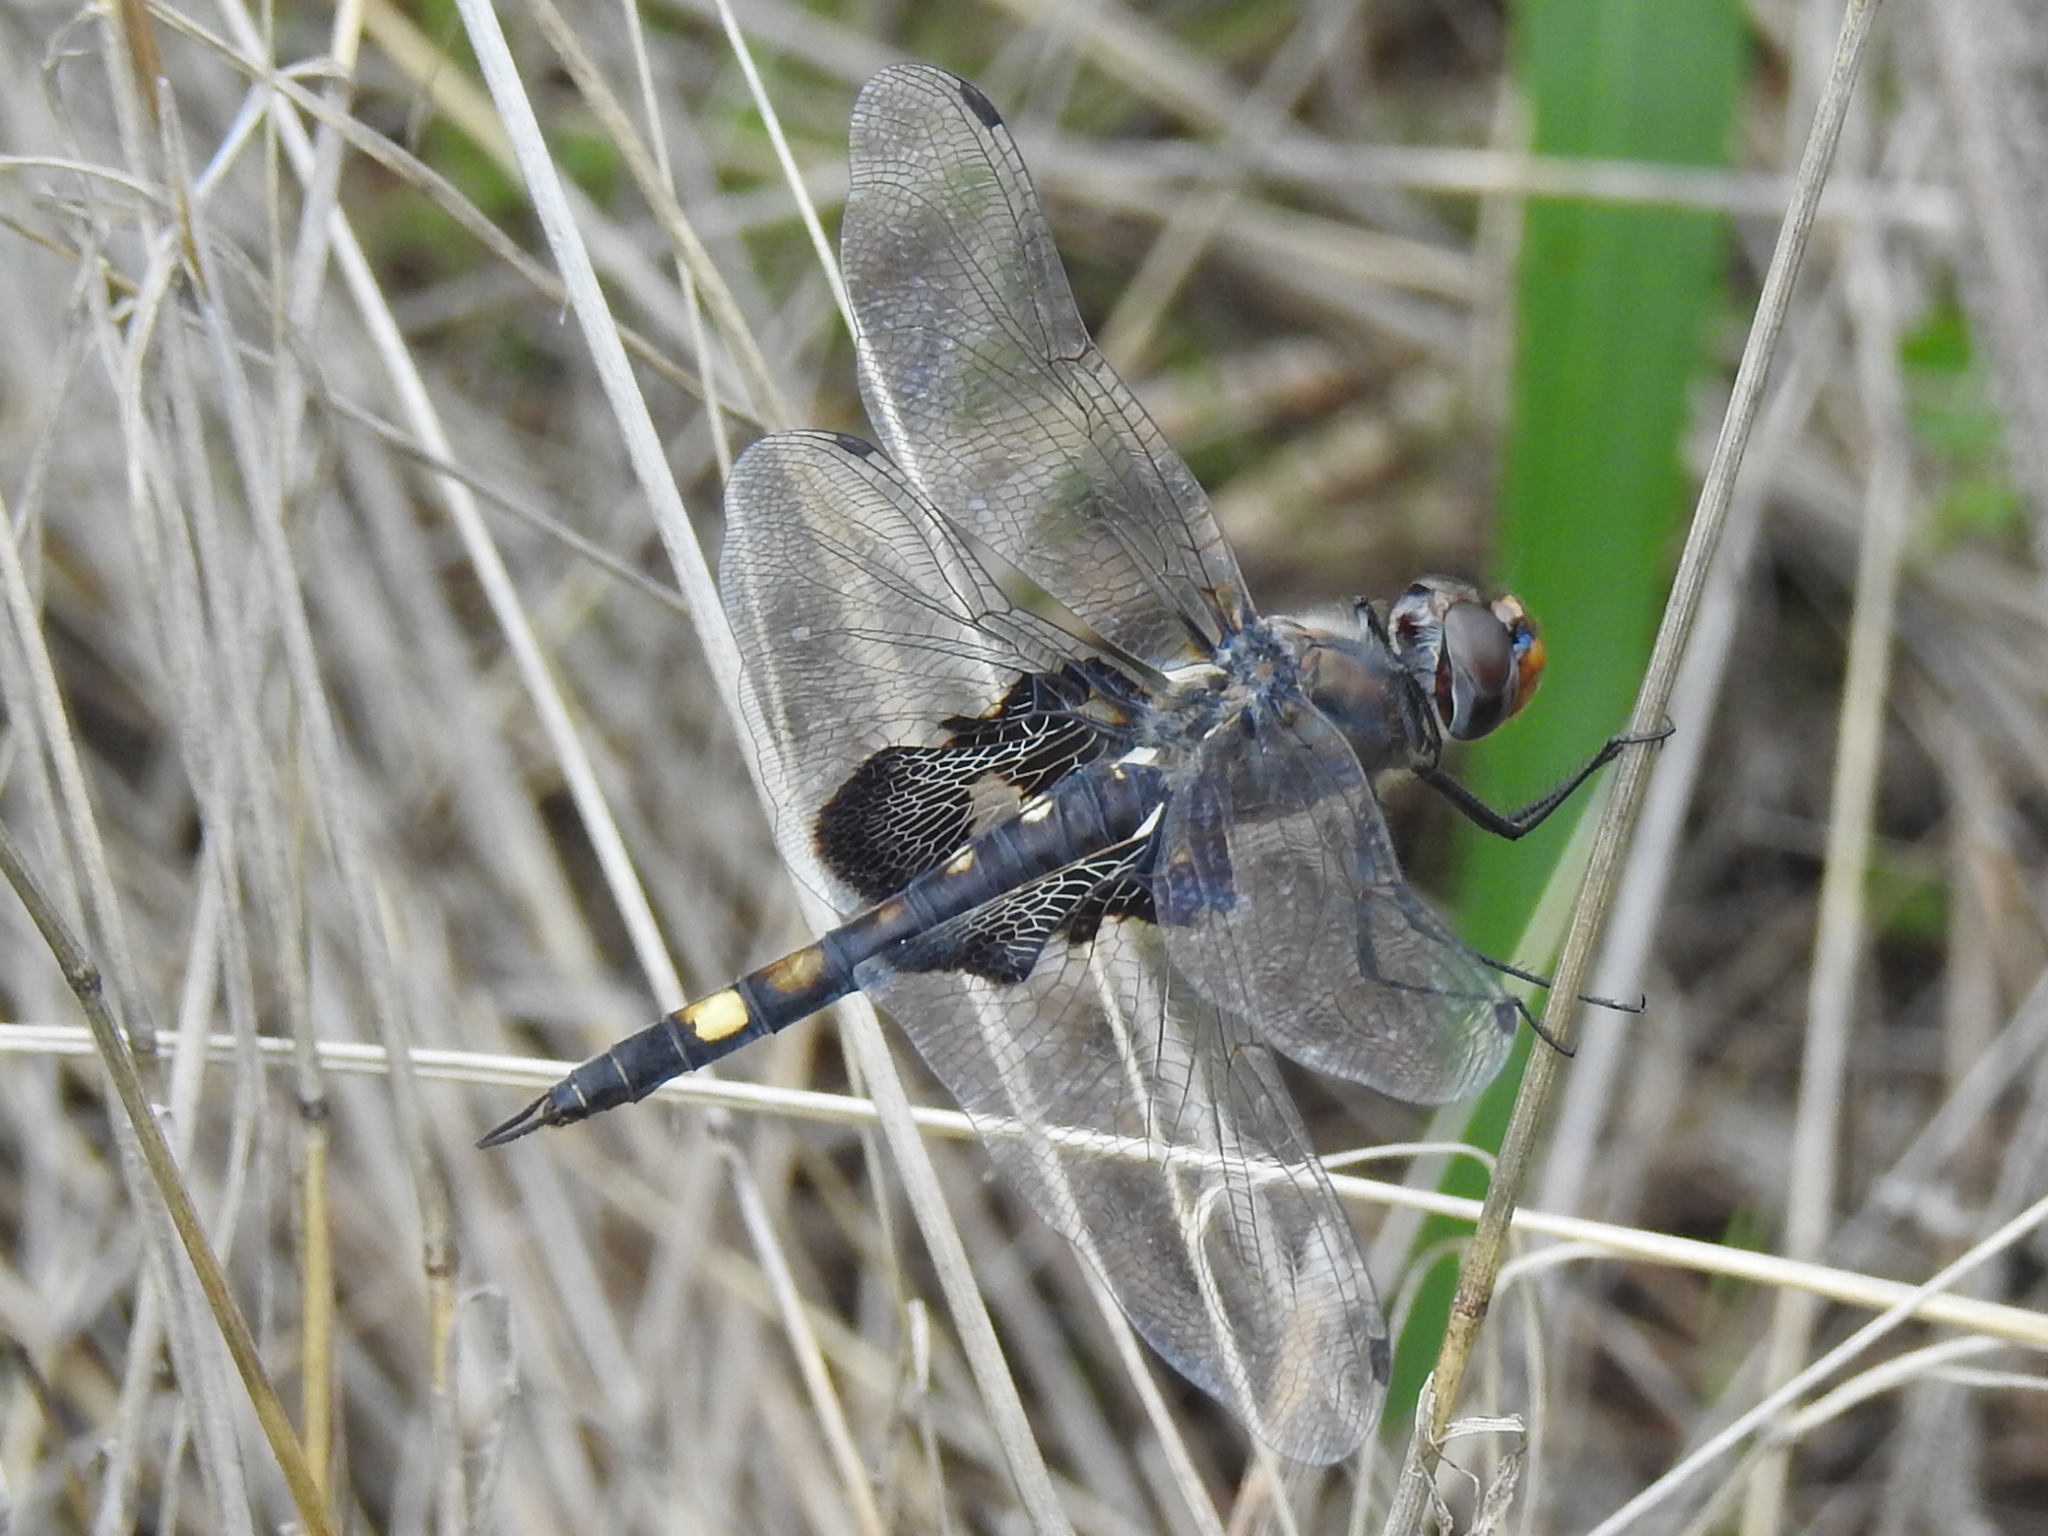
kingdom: Animalia
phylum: Arthropoda
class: Insecta
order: Odonata
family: Libellulidae
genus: Tramea
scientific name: Tramea lacerata
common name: Black saddlebags
